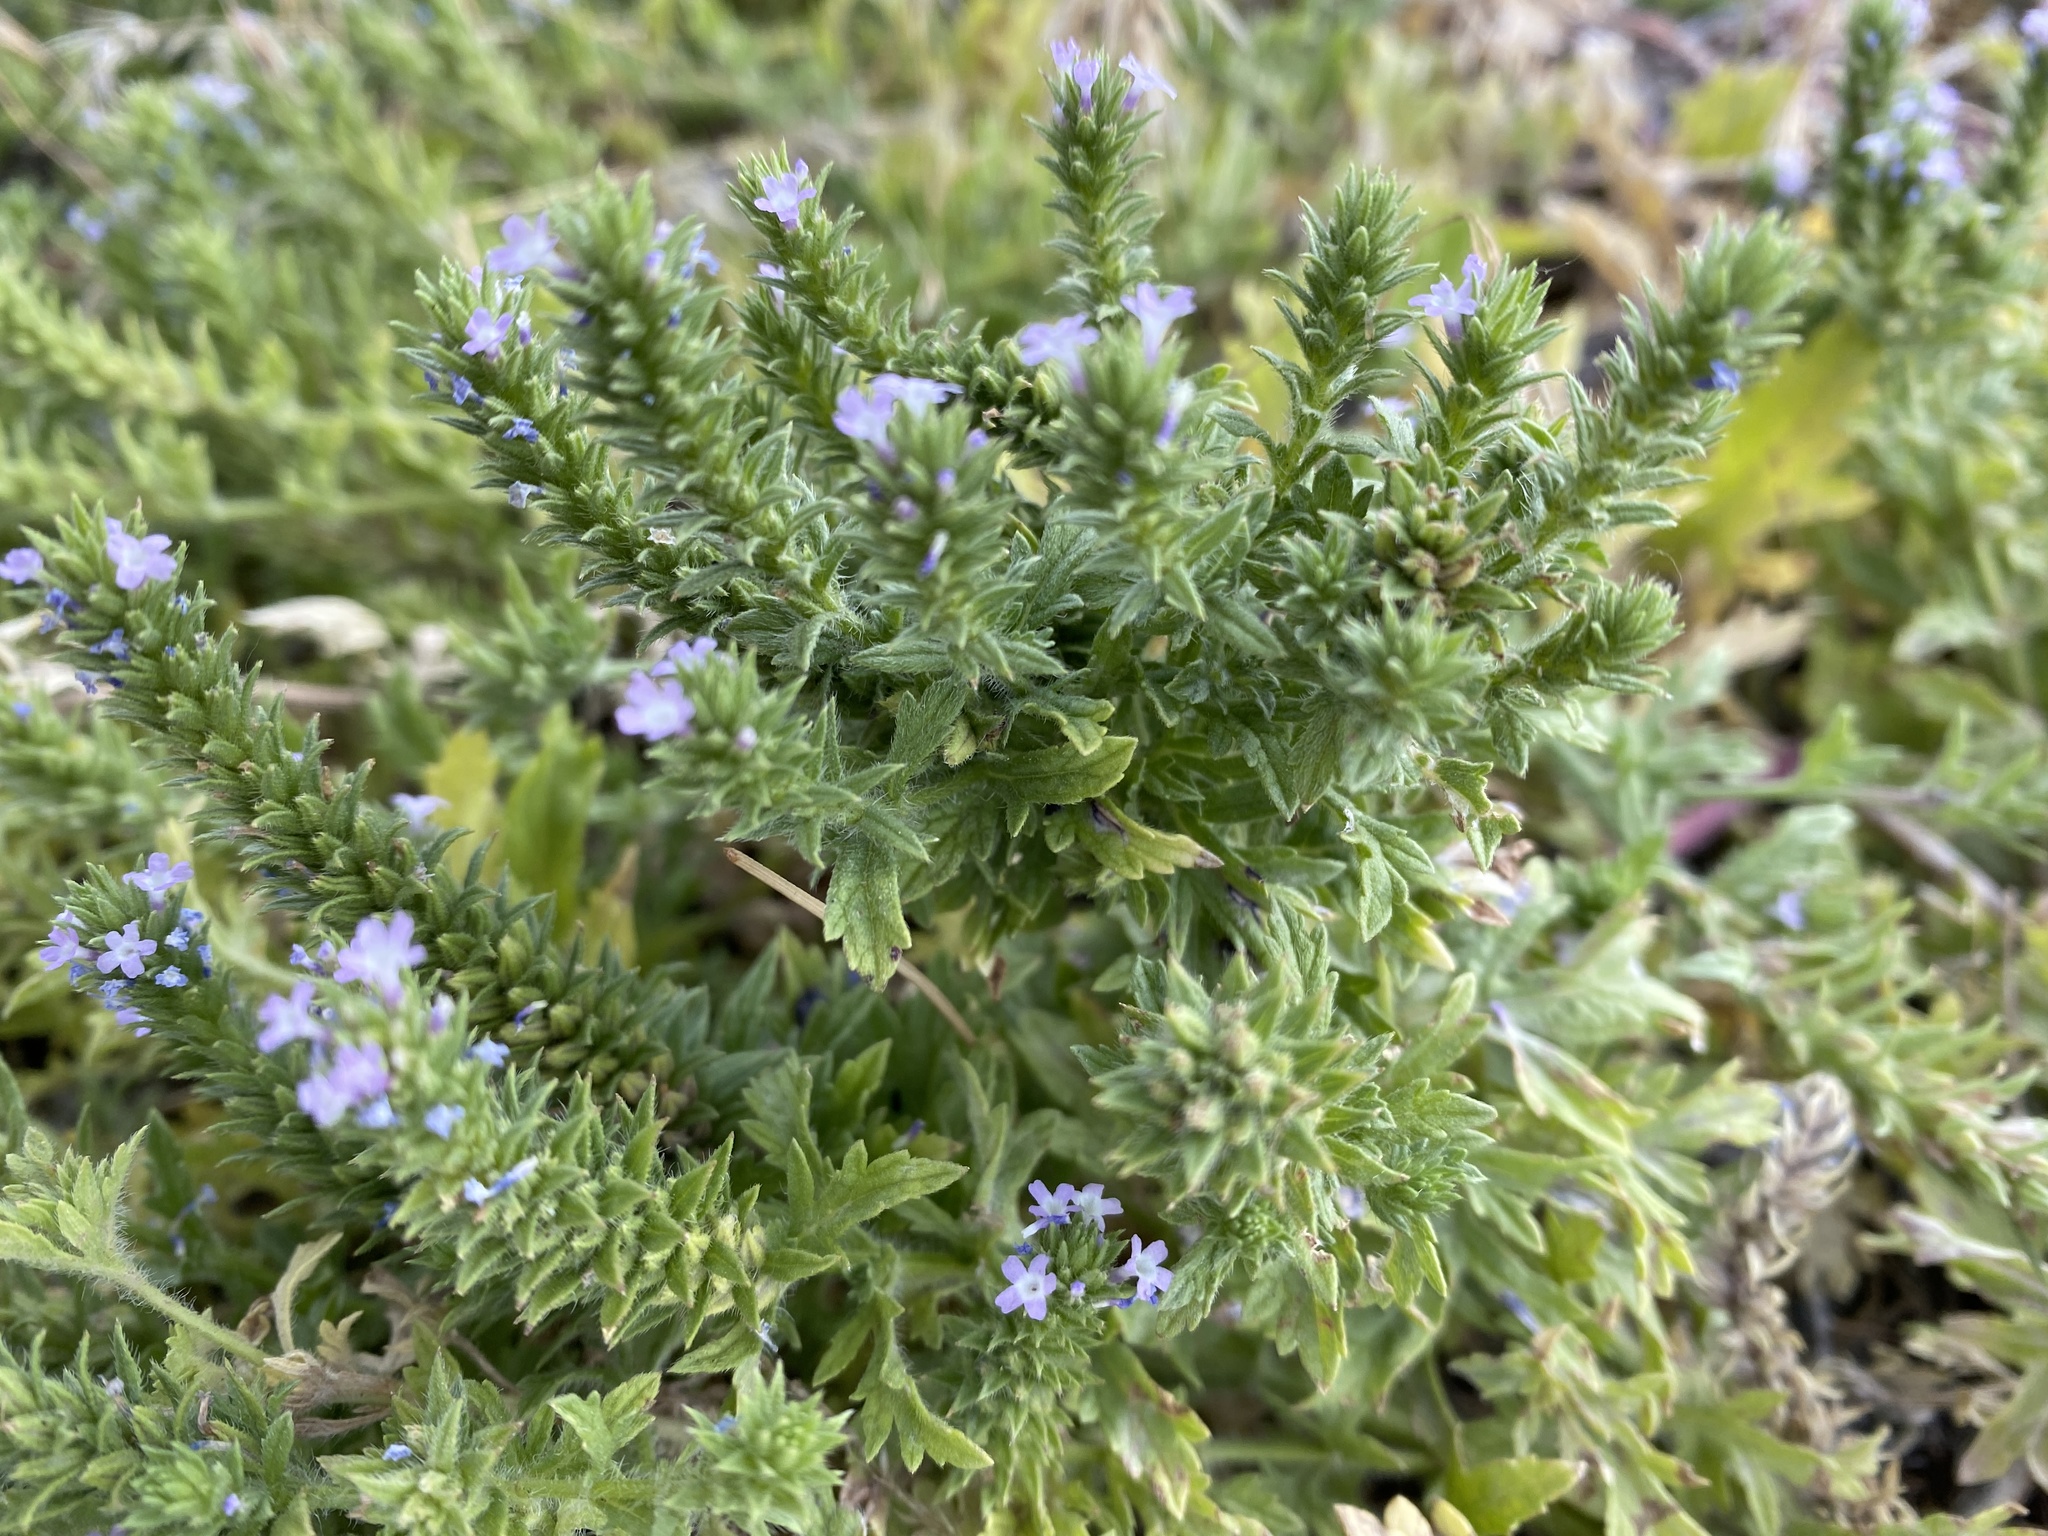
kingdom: Plantae
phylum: Tracheophyta
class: Magnoliopsida
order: Lamiales
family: Verbenaceae
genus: Verbena
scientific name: Verbena bracteata
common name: Bracted vervain
